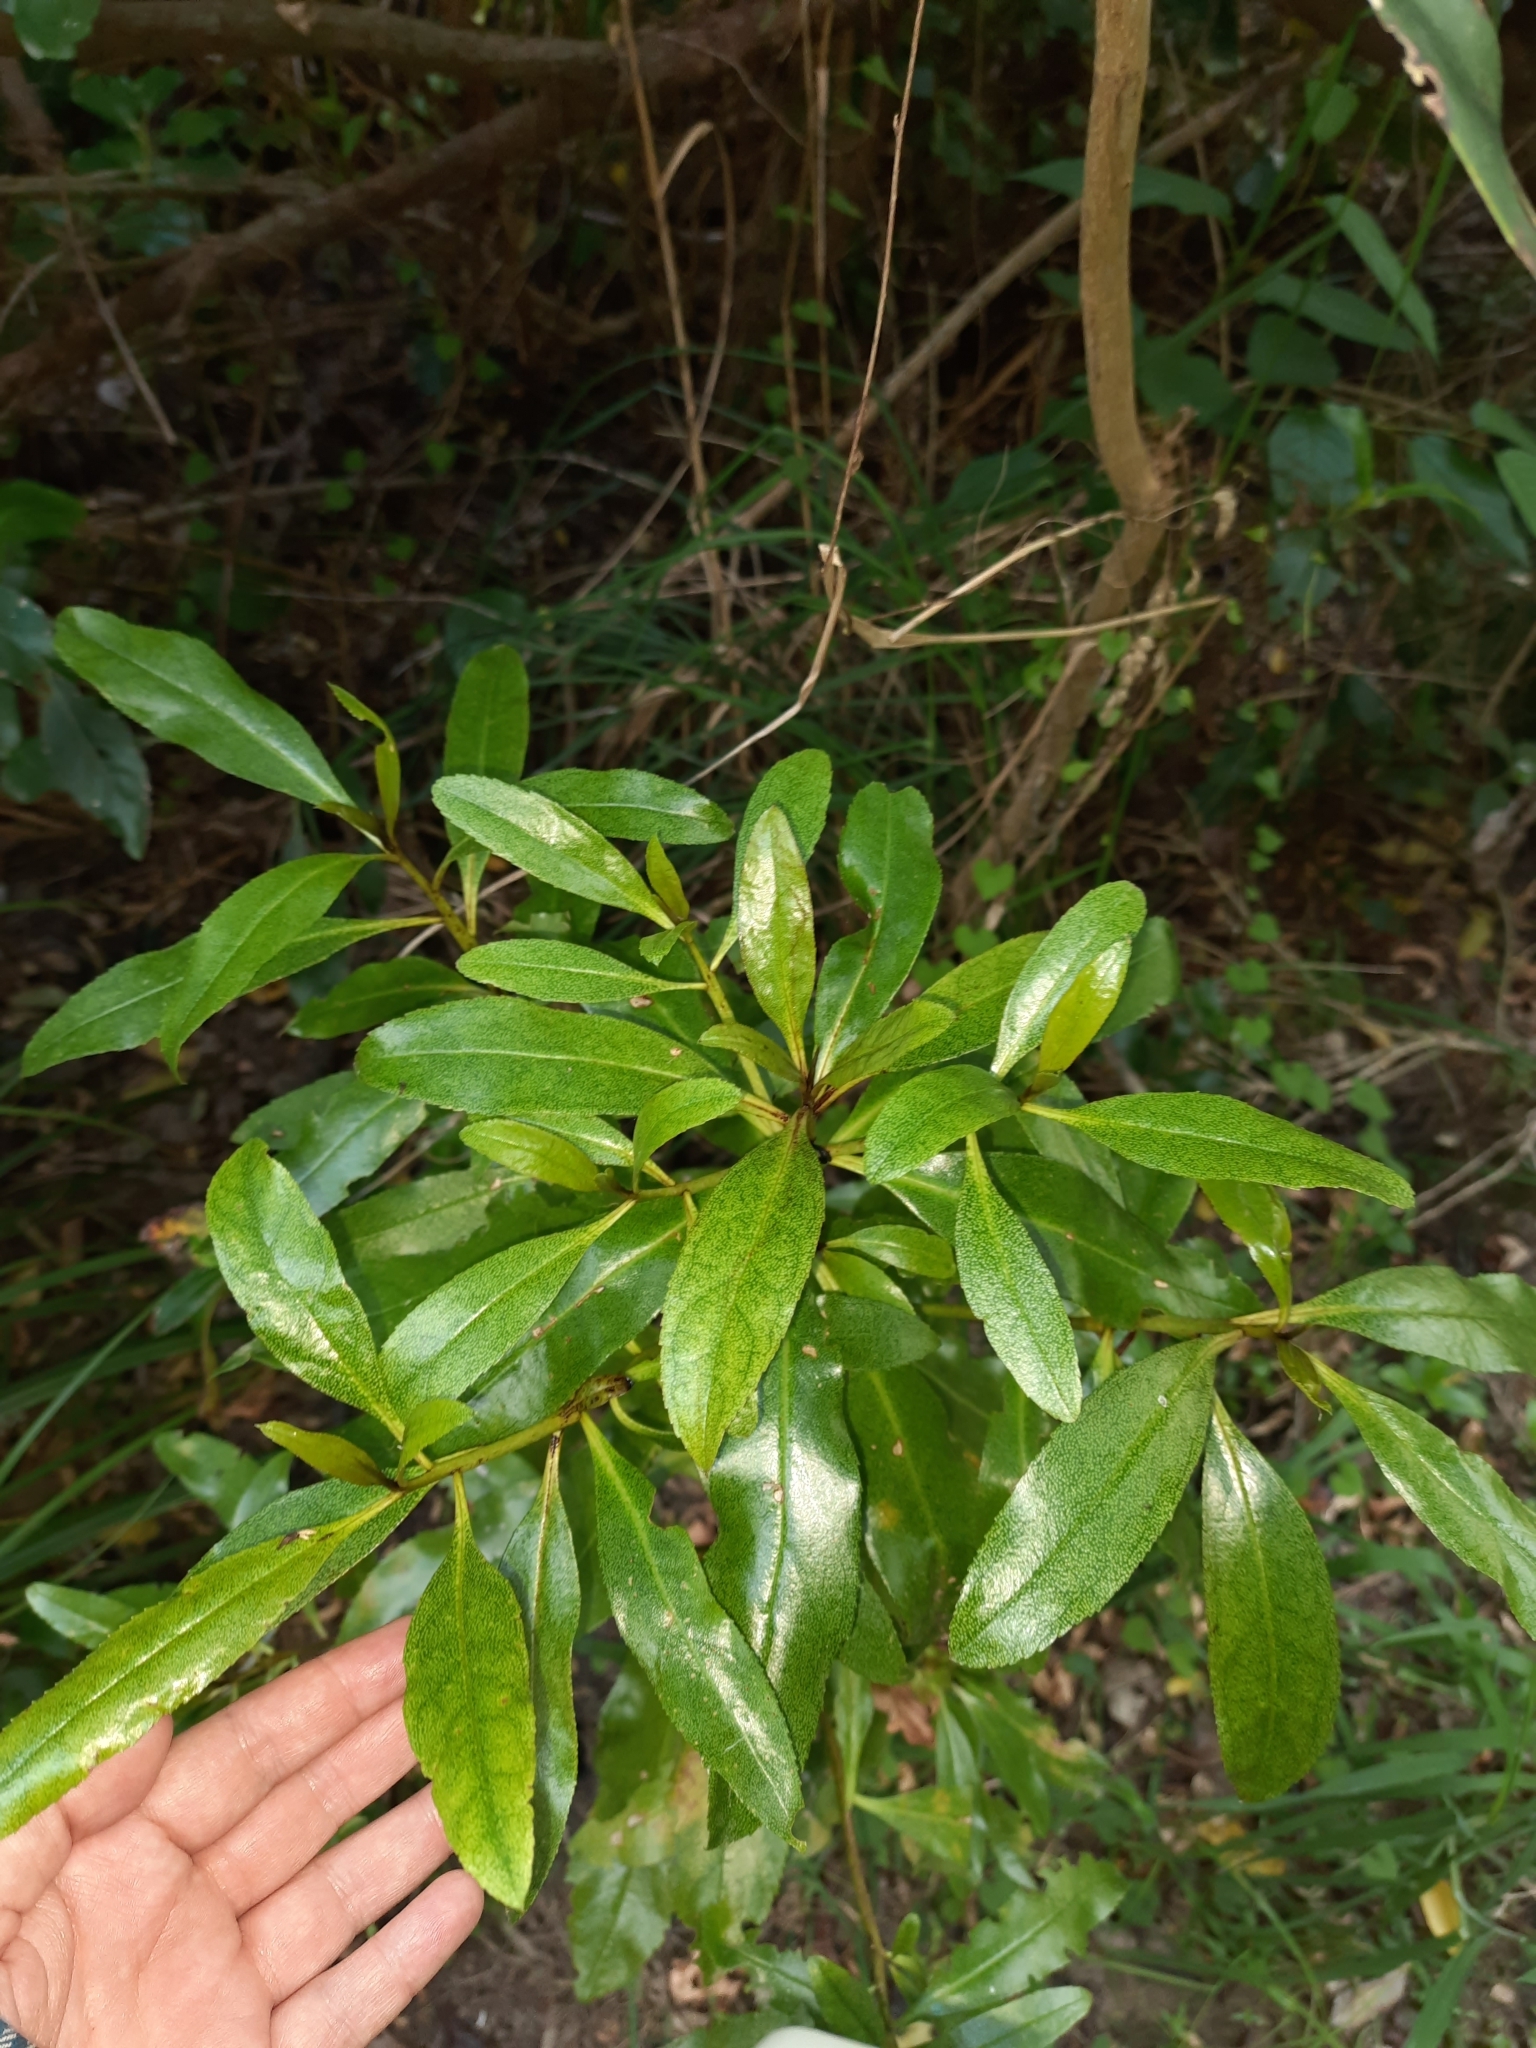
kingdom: Plantae
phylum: Tracheophyta
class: Magnoliopsida
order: Lamiales
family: Scrophulariaceae
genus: Myoporum
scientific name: Myoporum laetum
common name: Ngaio tree
